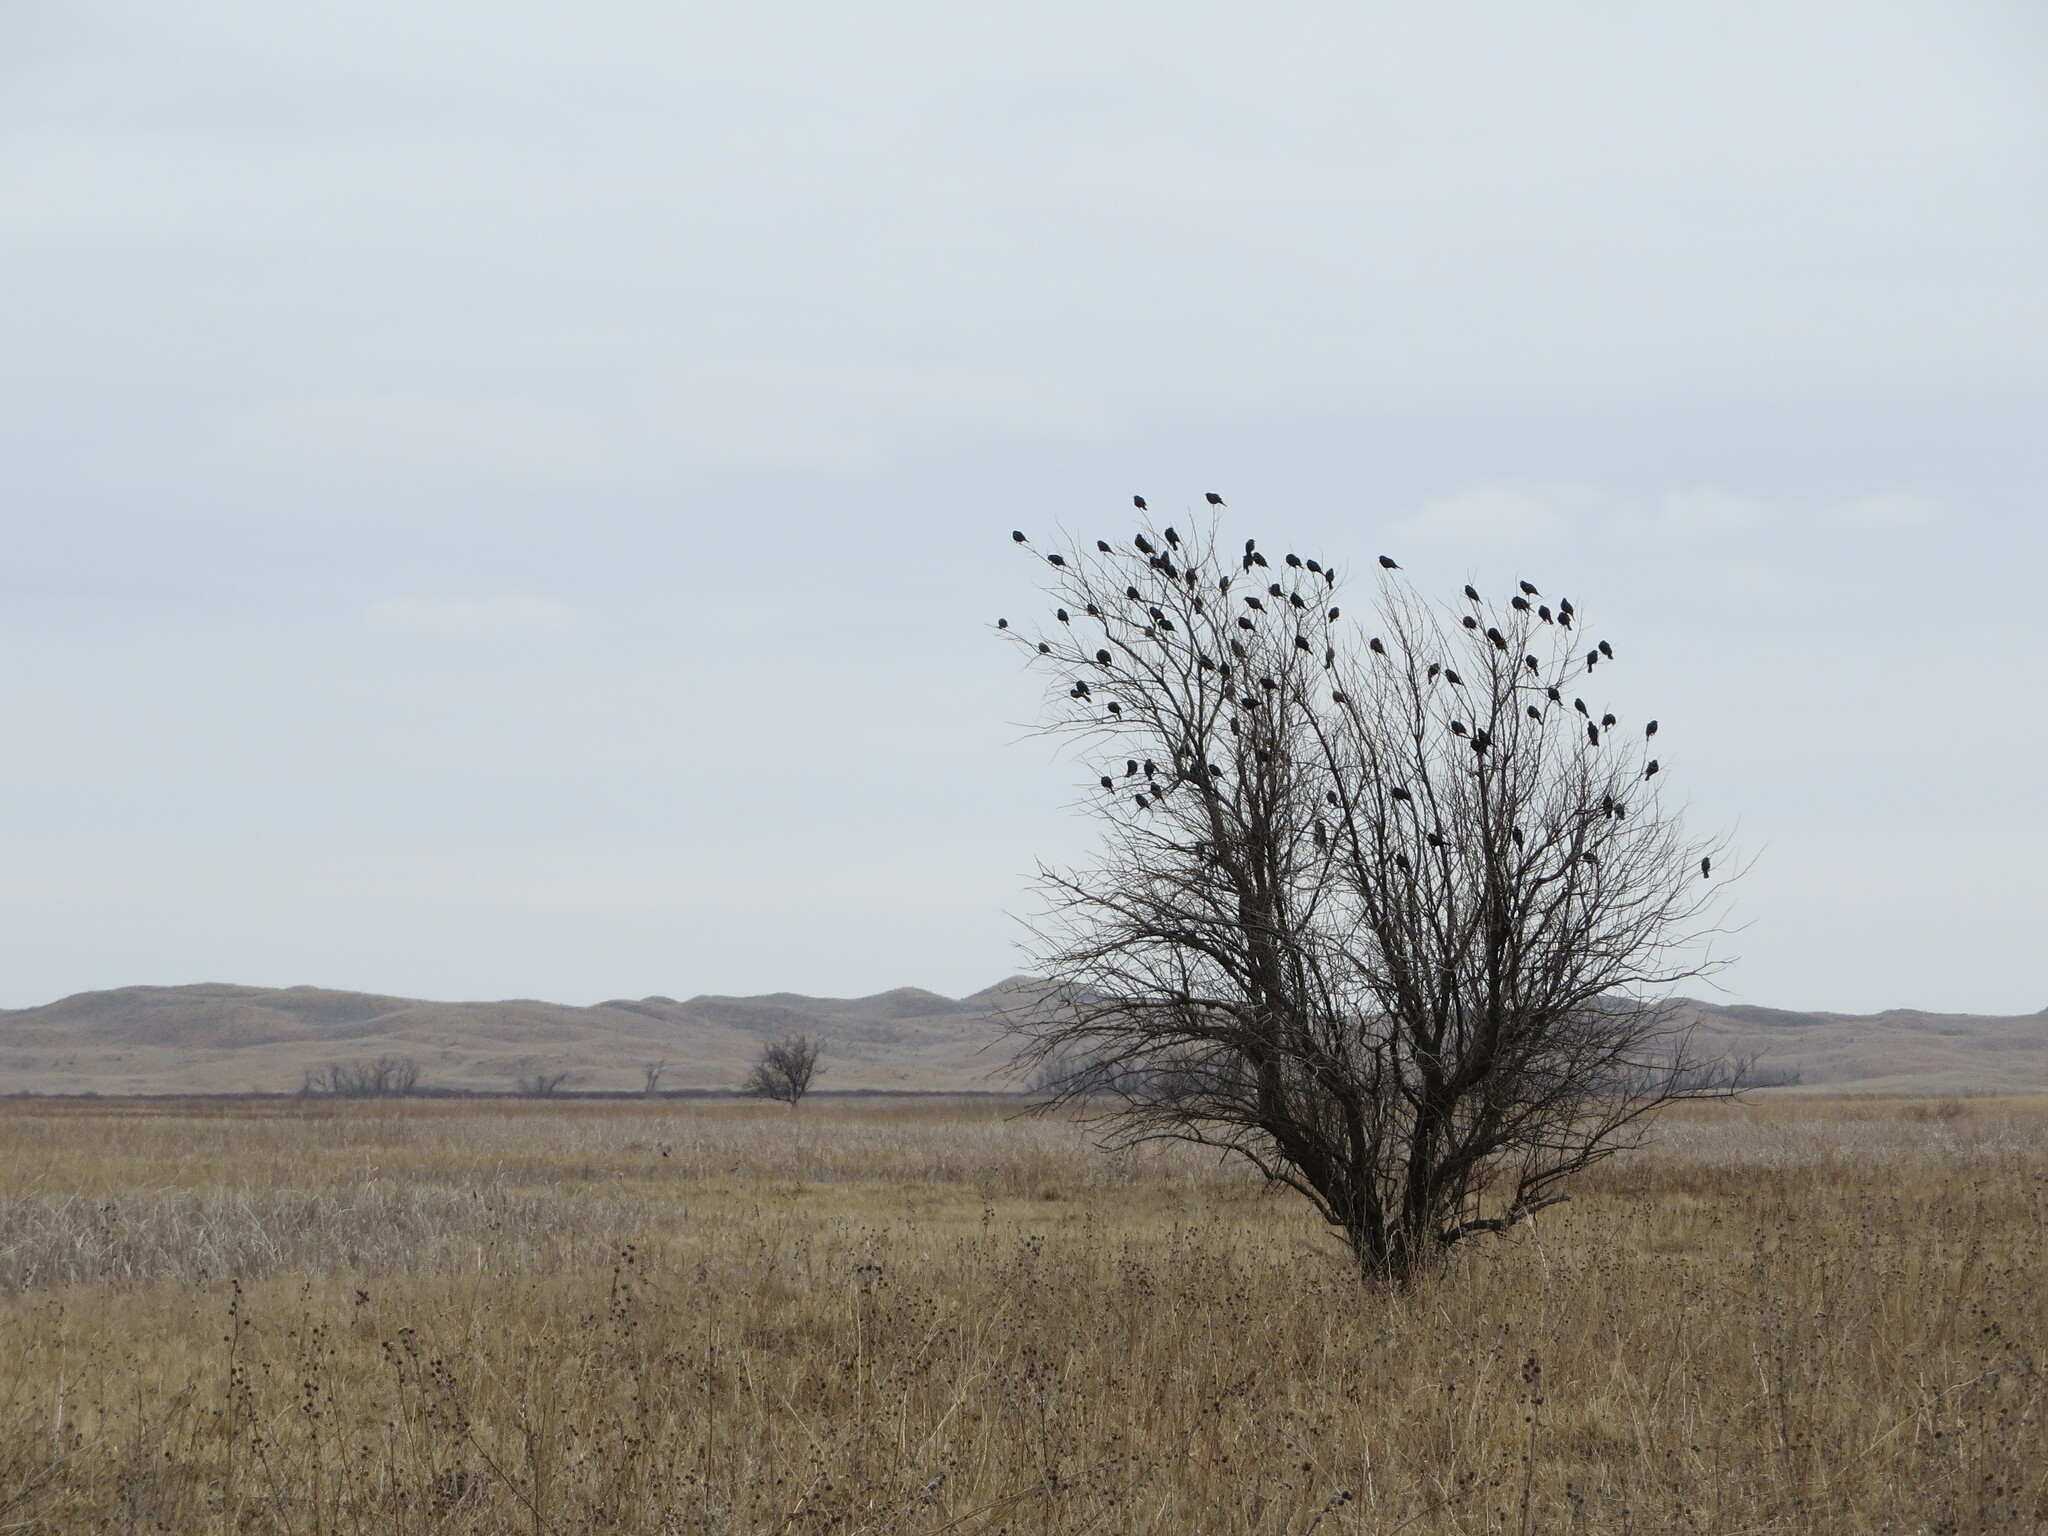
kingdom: Animalia
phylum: Chordata
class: Aves
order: Passeriformes
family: Icteridae
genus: Agelaius
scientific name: Agelaius phoeniceus
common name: Red-winged blackbird
